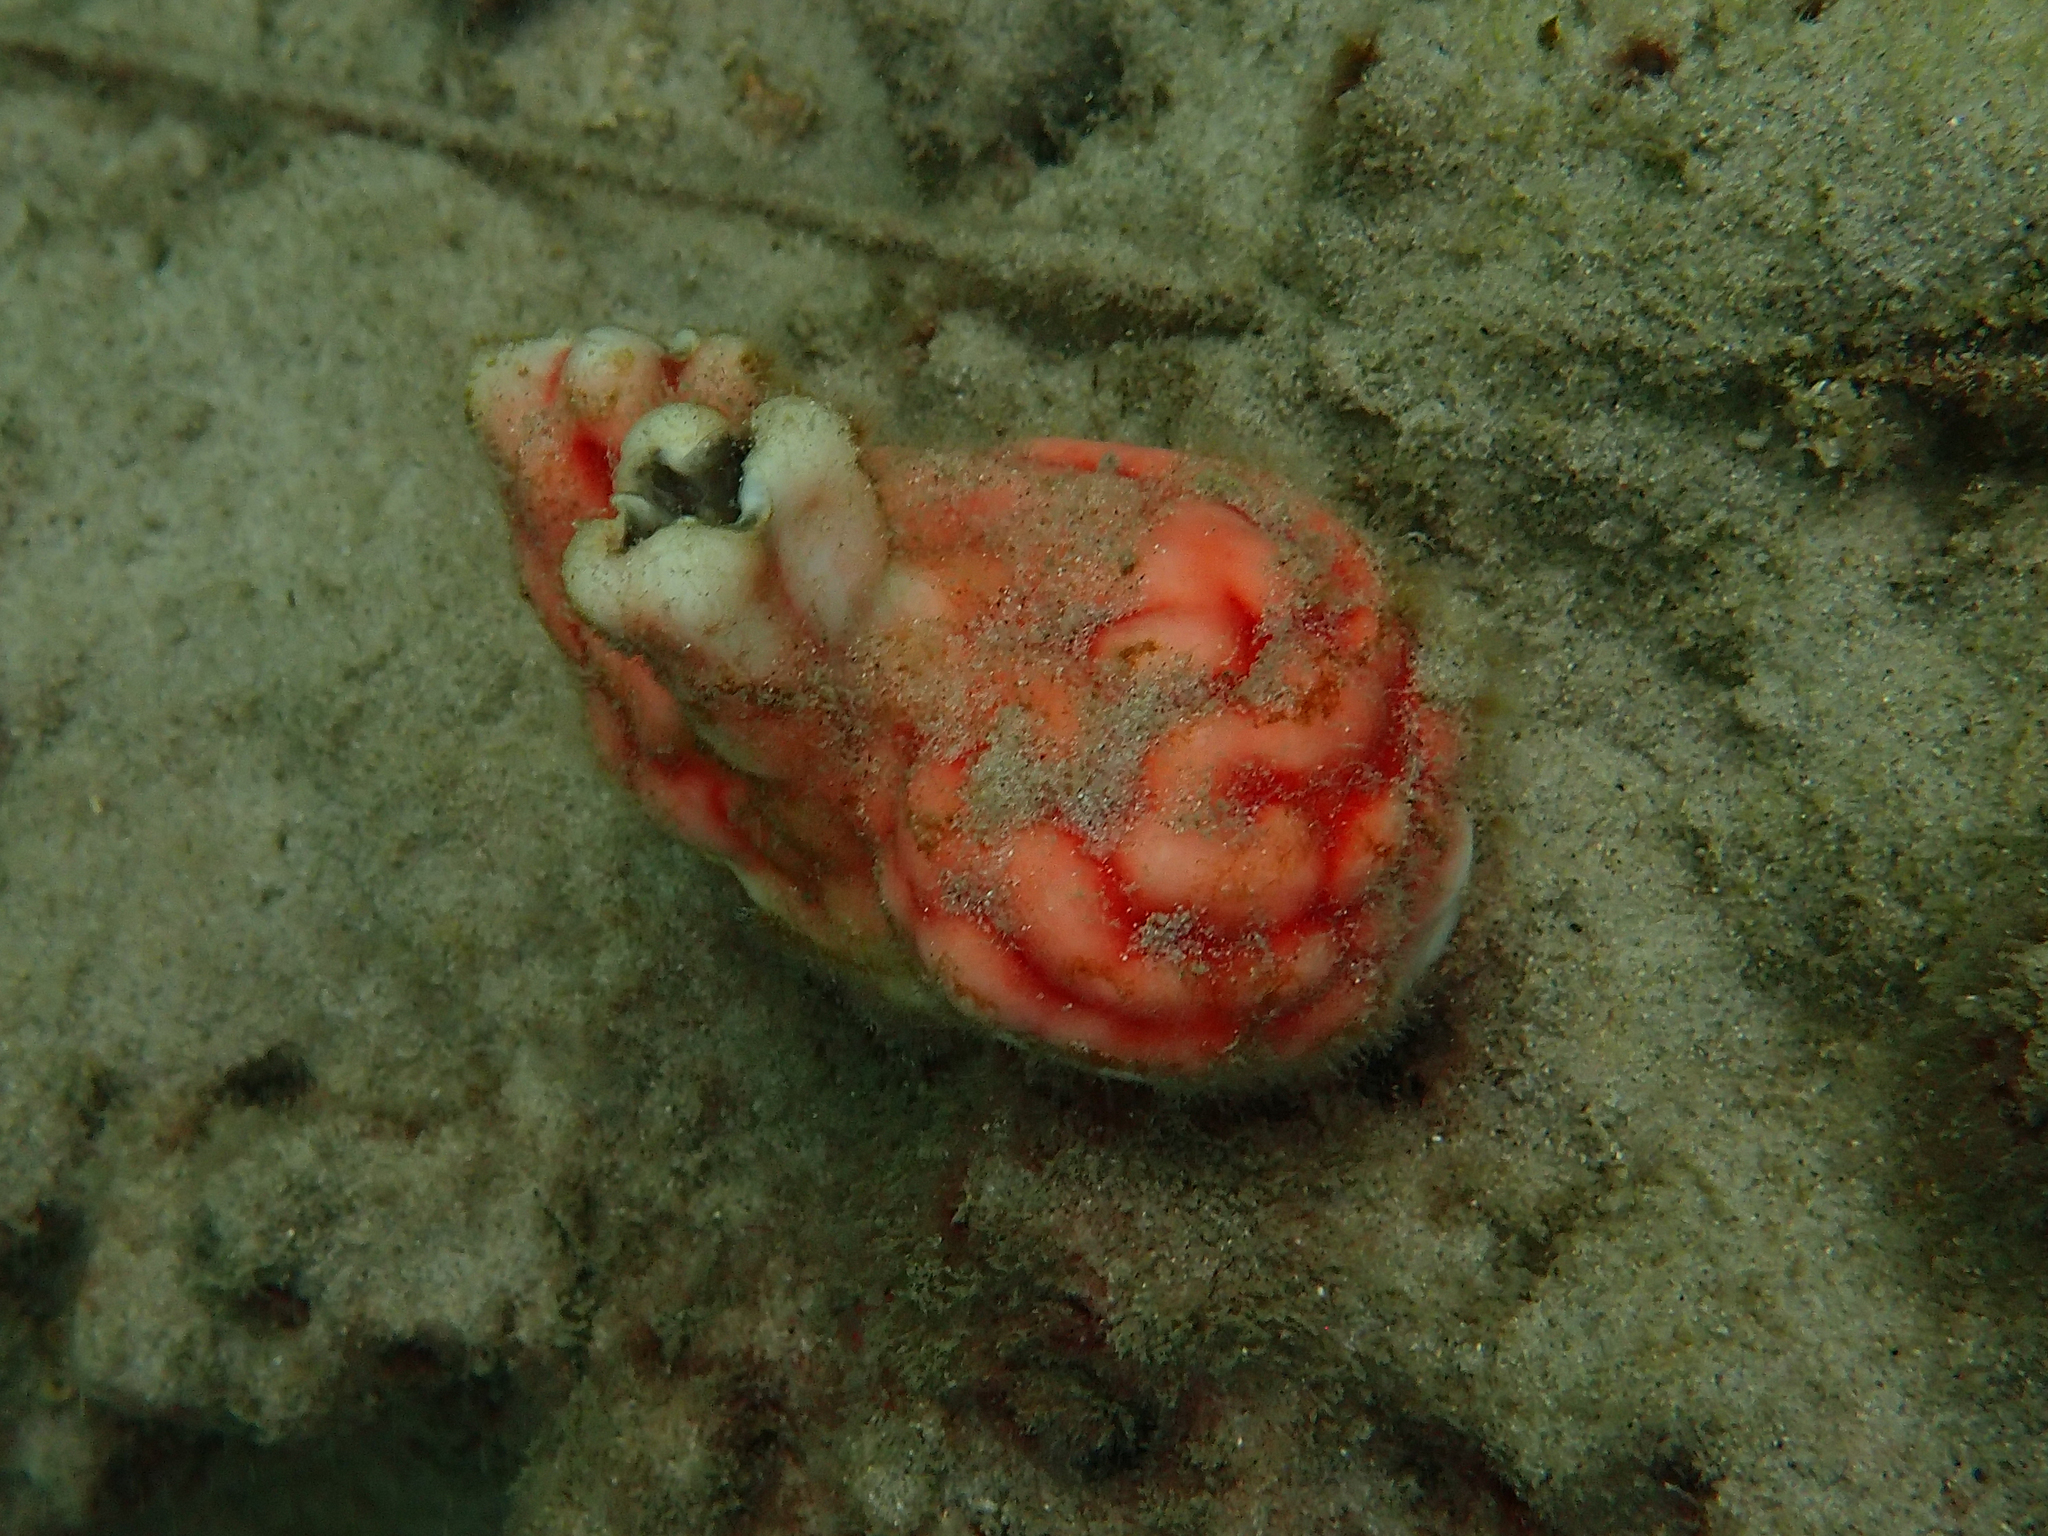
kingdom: Animalia
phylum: Chordata
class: Ascidiacea
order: Stolidobranchia
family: Styelidae
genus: Cnemidocarpa
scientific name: Cnemidocarpa stolonifera
